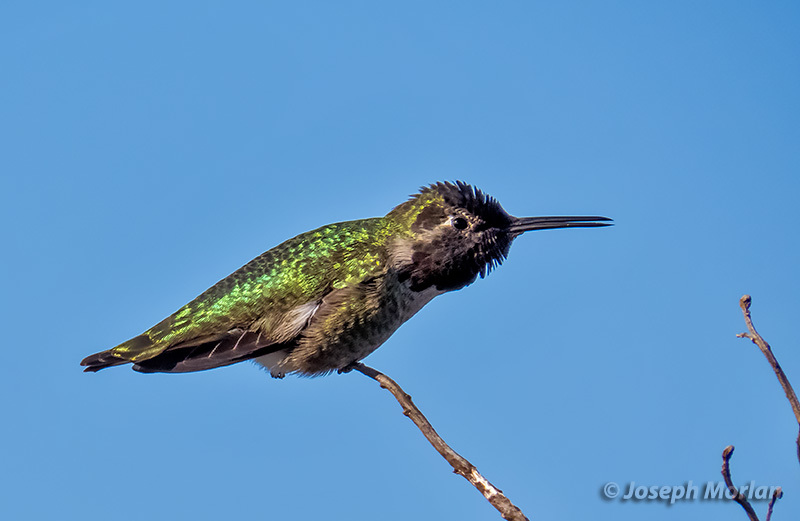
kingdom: Animalia
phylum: Chordata
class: Aves
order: Apodiformes
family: Trochilidae
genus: Calypte
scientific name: Calypte anna
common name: Anna's hummingbird
